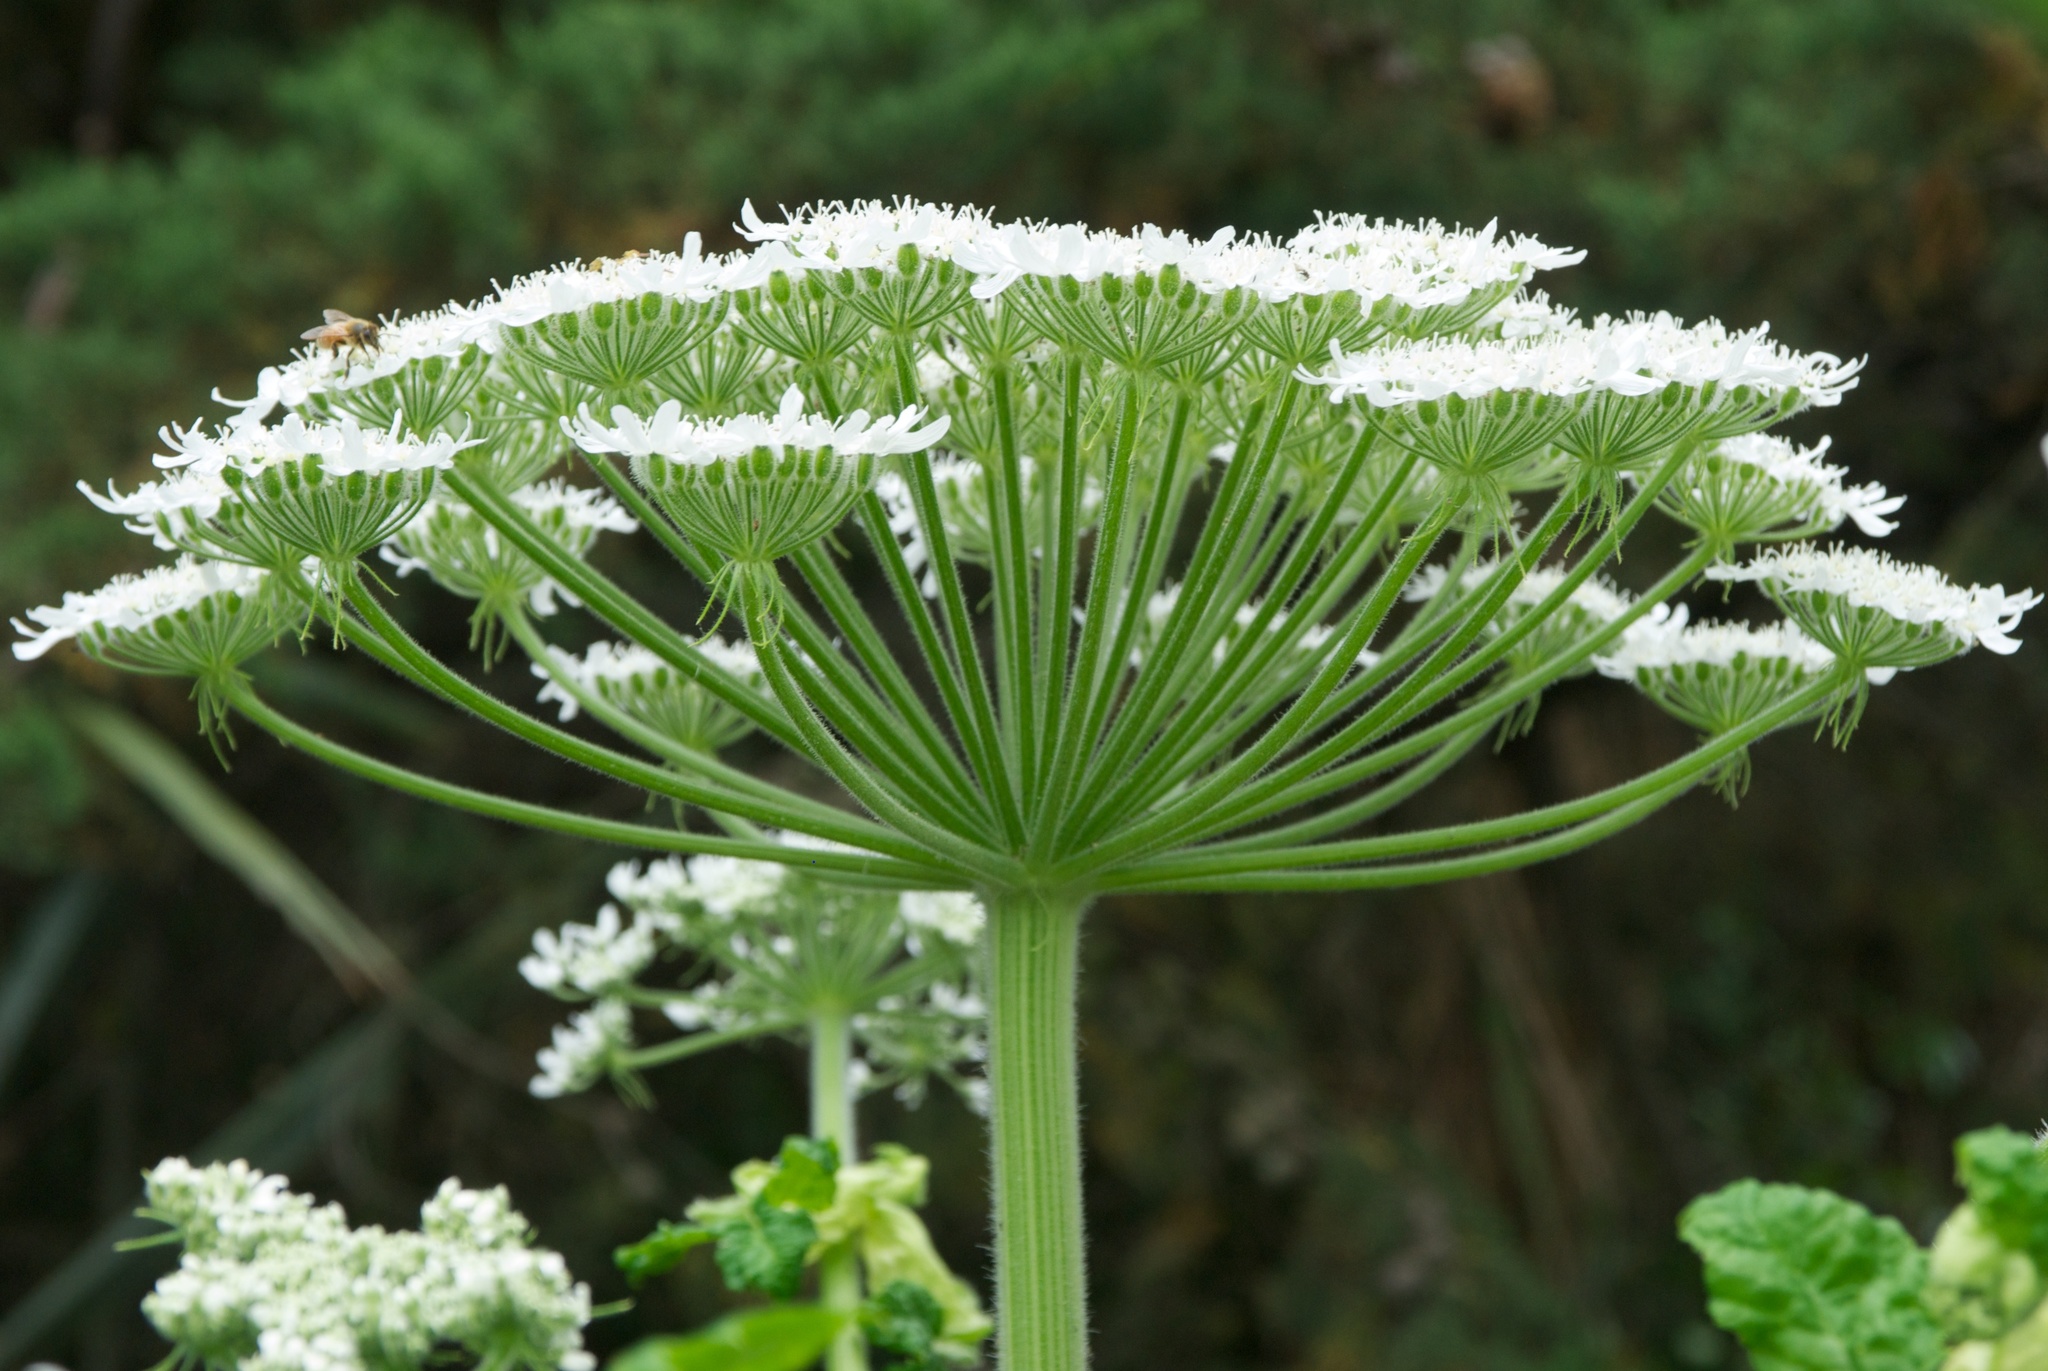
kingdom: Plantae
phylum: Tracheophyta
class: Magnoliopsida
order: Apiales
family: Apiaceae
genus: Heracleum
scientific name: Heracleum mantegazzianum
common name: Giant hogweed
